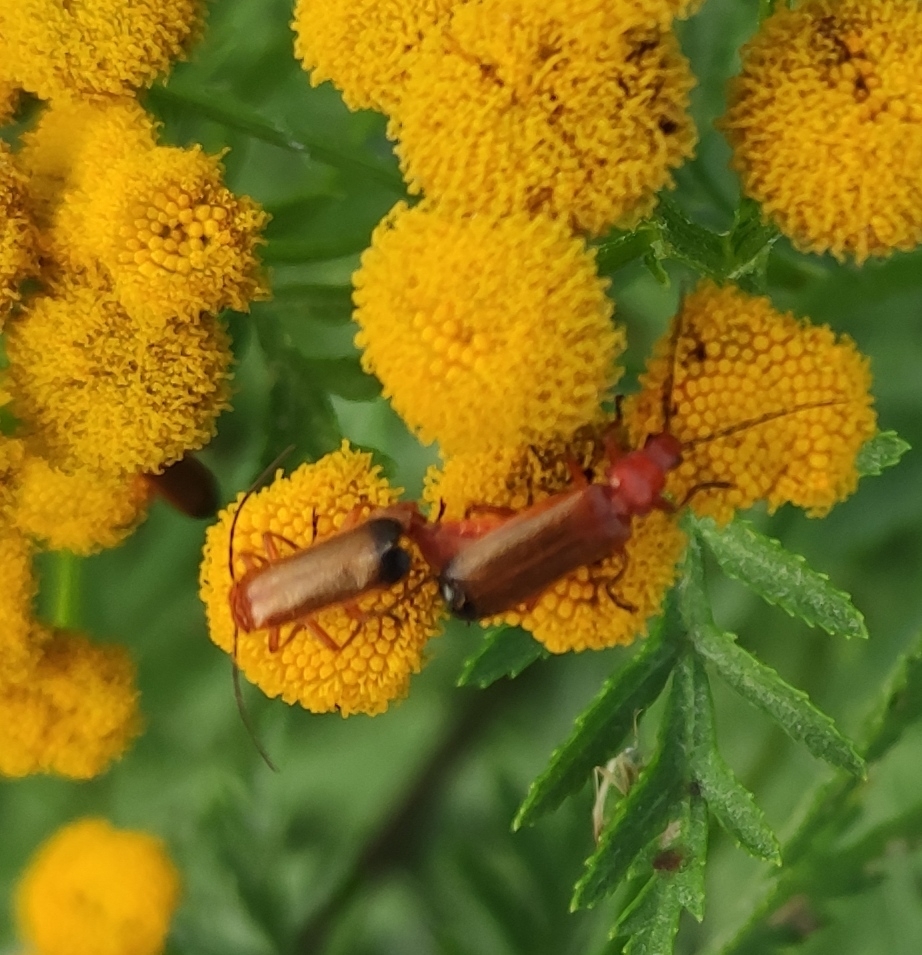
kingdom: Animalia
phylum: Arthropoda
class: Insecta
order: Coleoptera
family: Cantharidae
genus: Rhagonycha
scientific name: Rhagonycha fulva
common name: Common red soldier beetle
